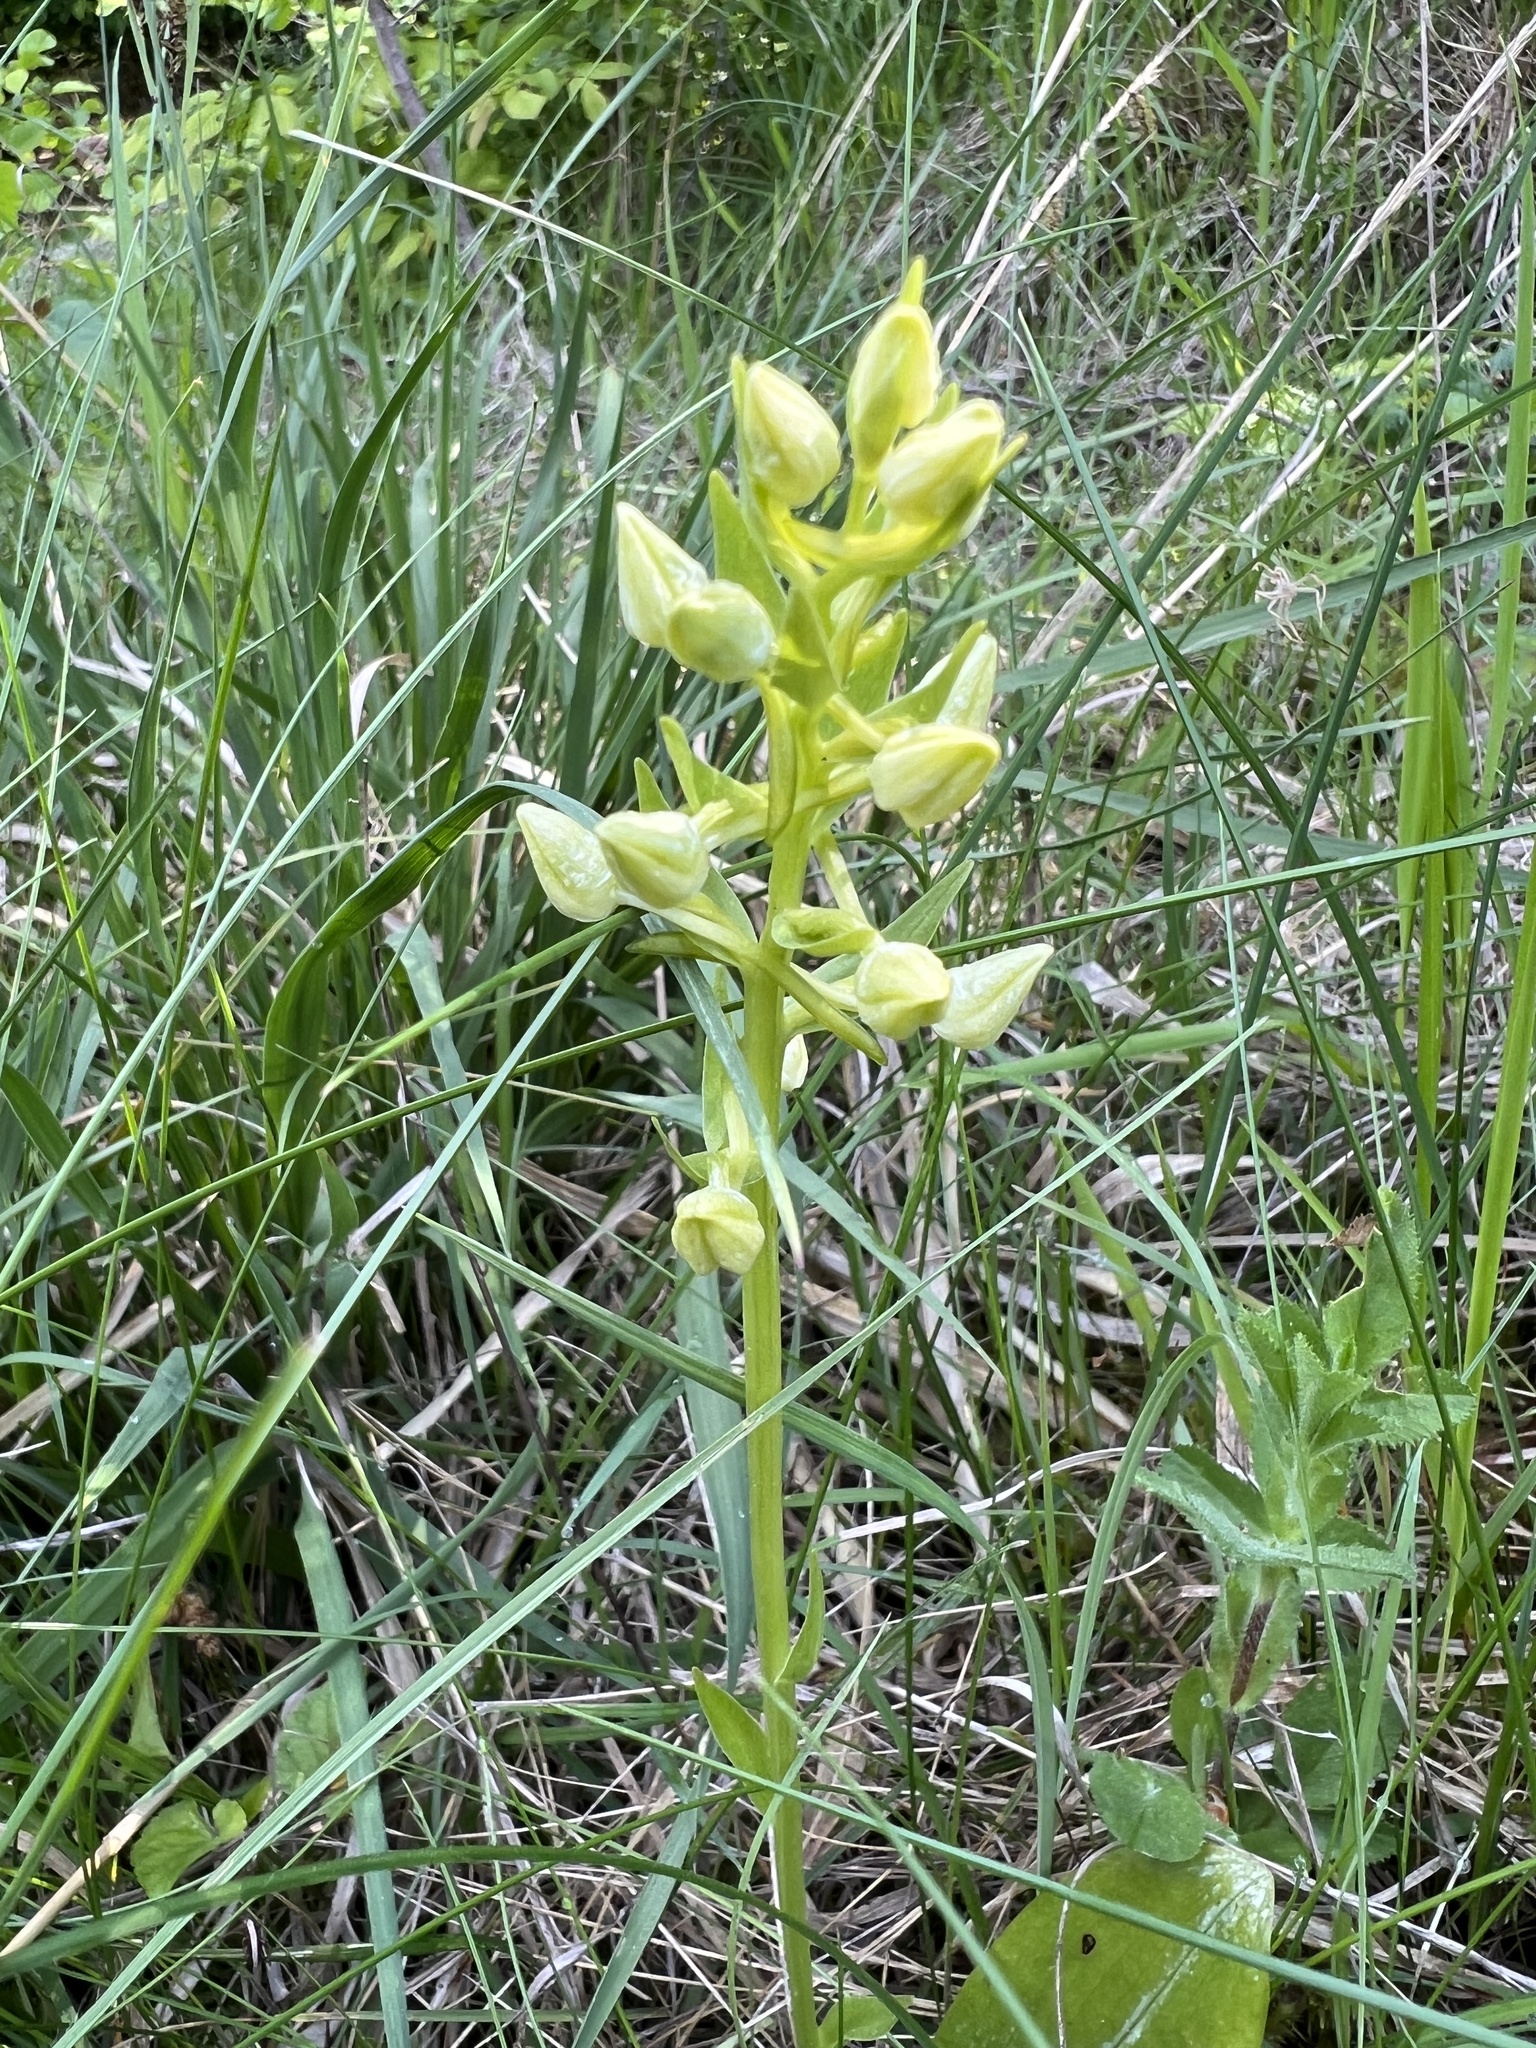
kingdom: Plantae
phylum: Tracheophyta
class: Liliopsida
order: Asparagales
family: Orchidaceae
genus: Cephalanthera
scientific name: Cephalanthera damasonium
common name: White helleborine
